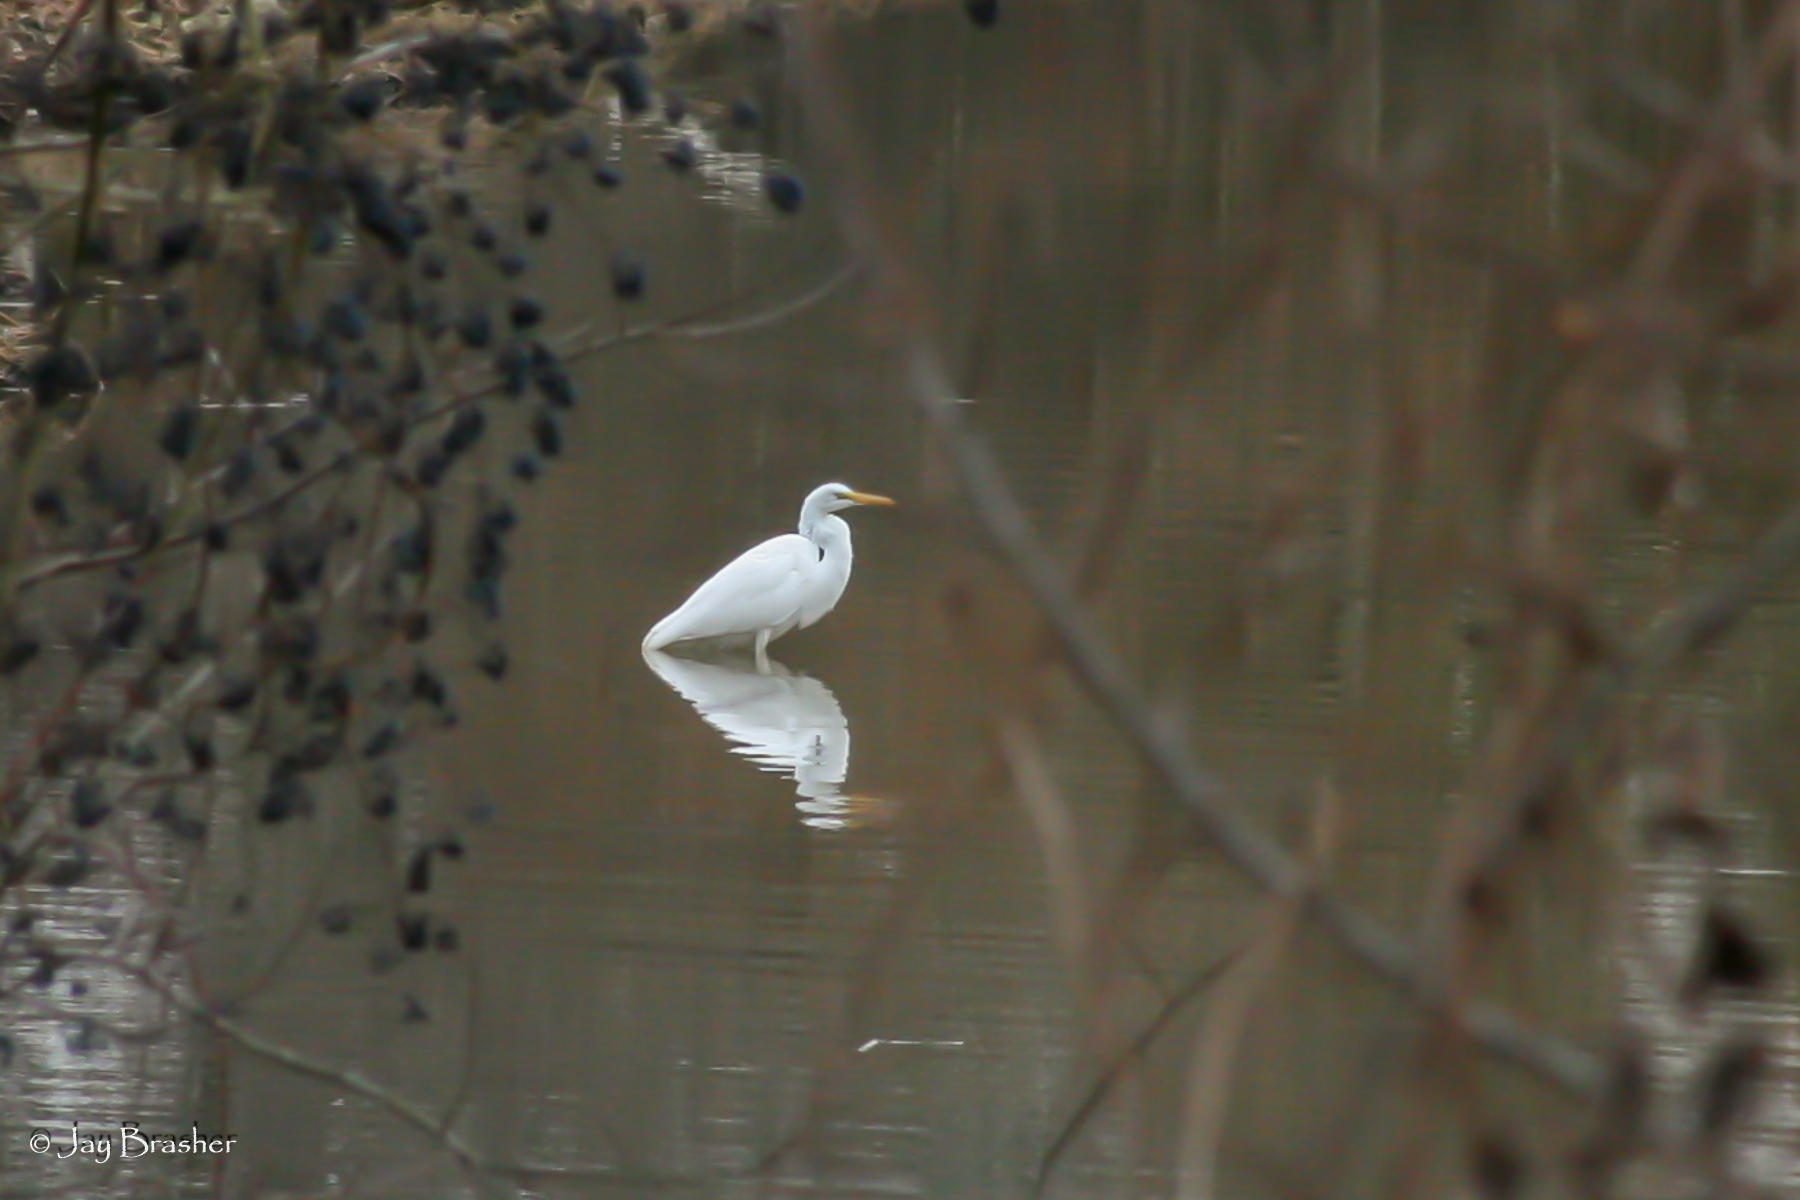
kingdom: Animalia
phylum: Chordata
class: Aves
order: Pelecaniformes
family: Ardeidae
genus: Ardea
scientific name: Ardea alba
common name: Great egret
